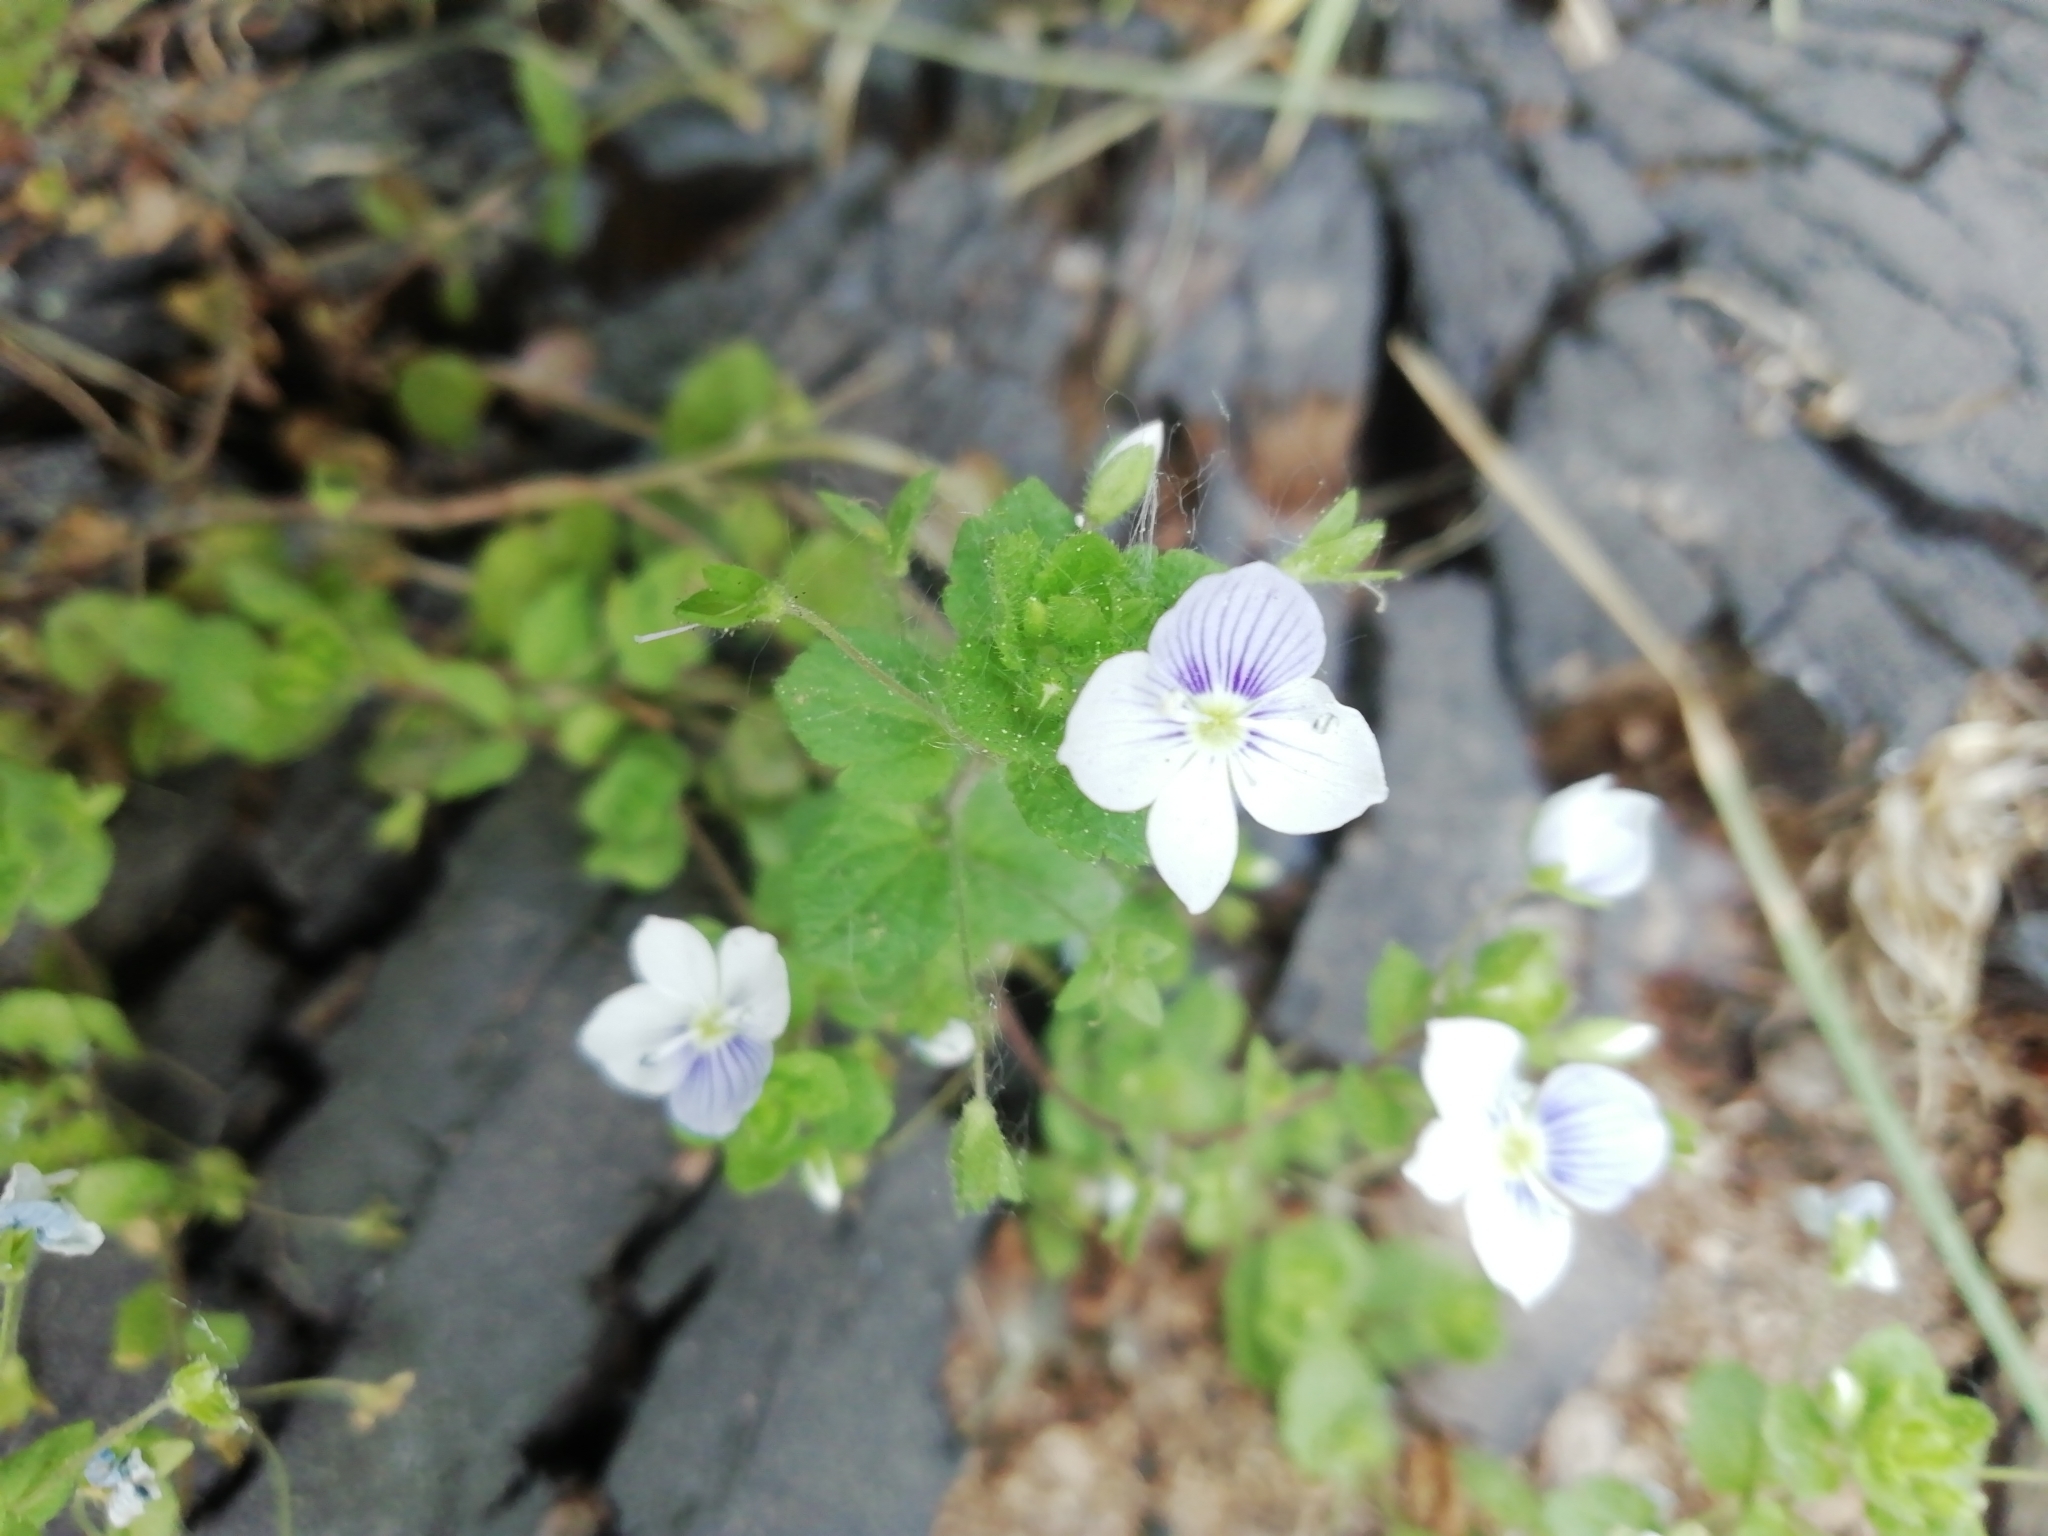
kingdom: Plantae
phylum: Tracheophyta
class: Magnoliopsida
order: Lamiales
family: Plantaginaceae
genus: Veronica
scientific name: Veronica filiformis
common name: Slender speedwell
